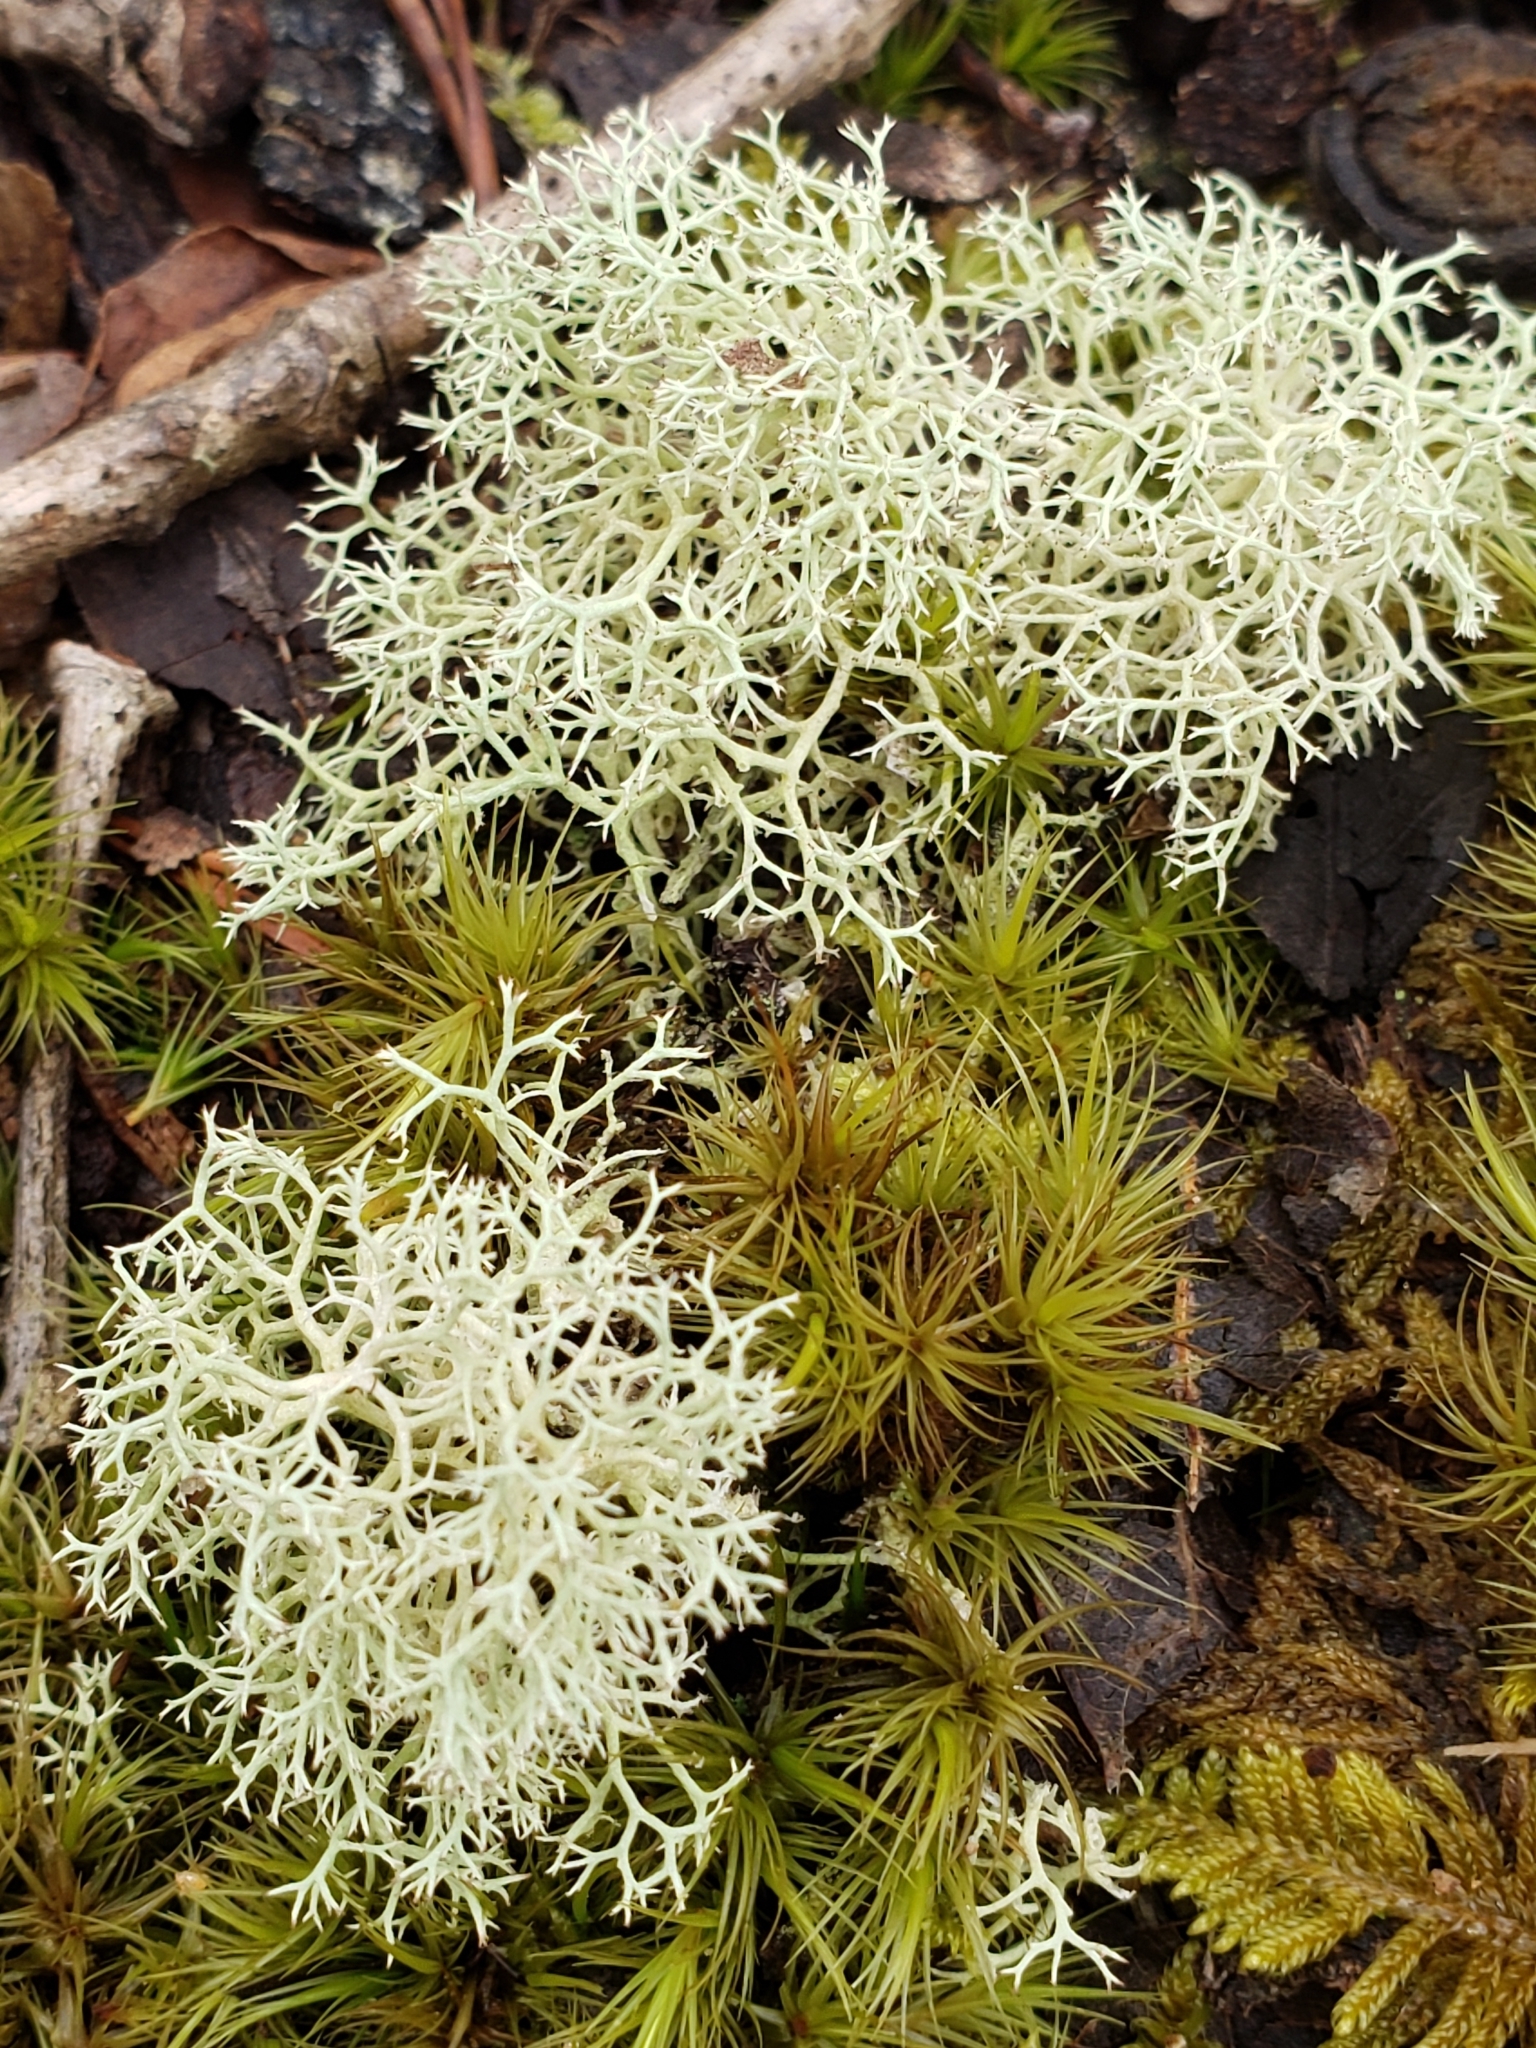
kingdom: Fungi
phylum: Ascomycota
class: Lecanoromycetes
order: Lecanorales
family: Cladoniaceae
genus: Cladonia
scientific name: Cladonia subtenuis
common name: Dixie reindeer lichen
